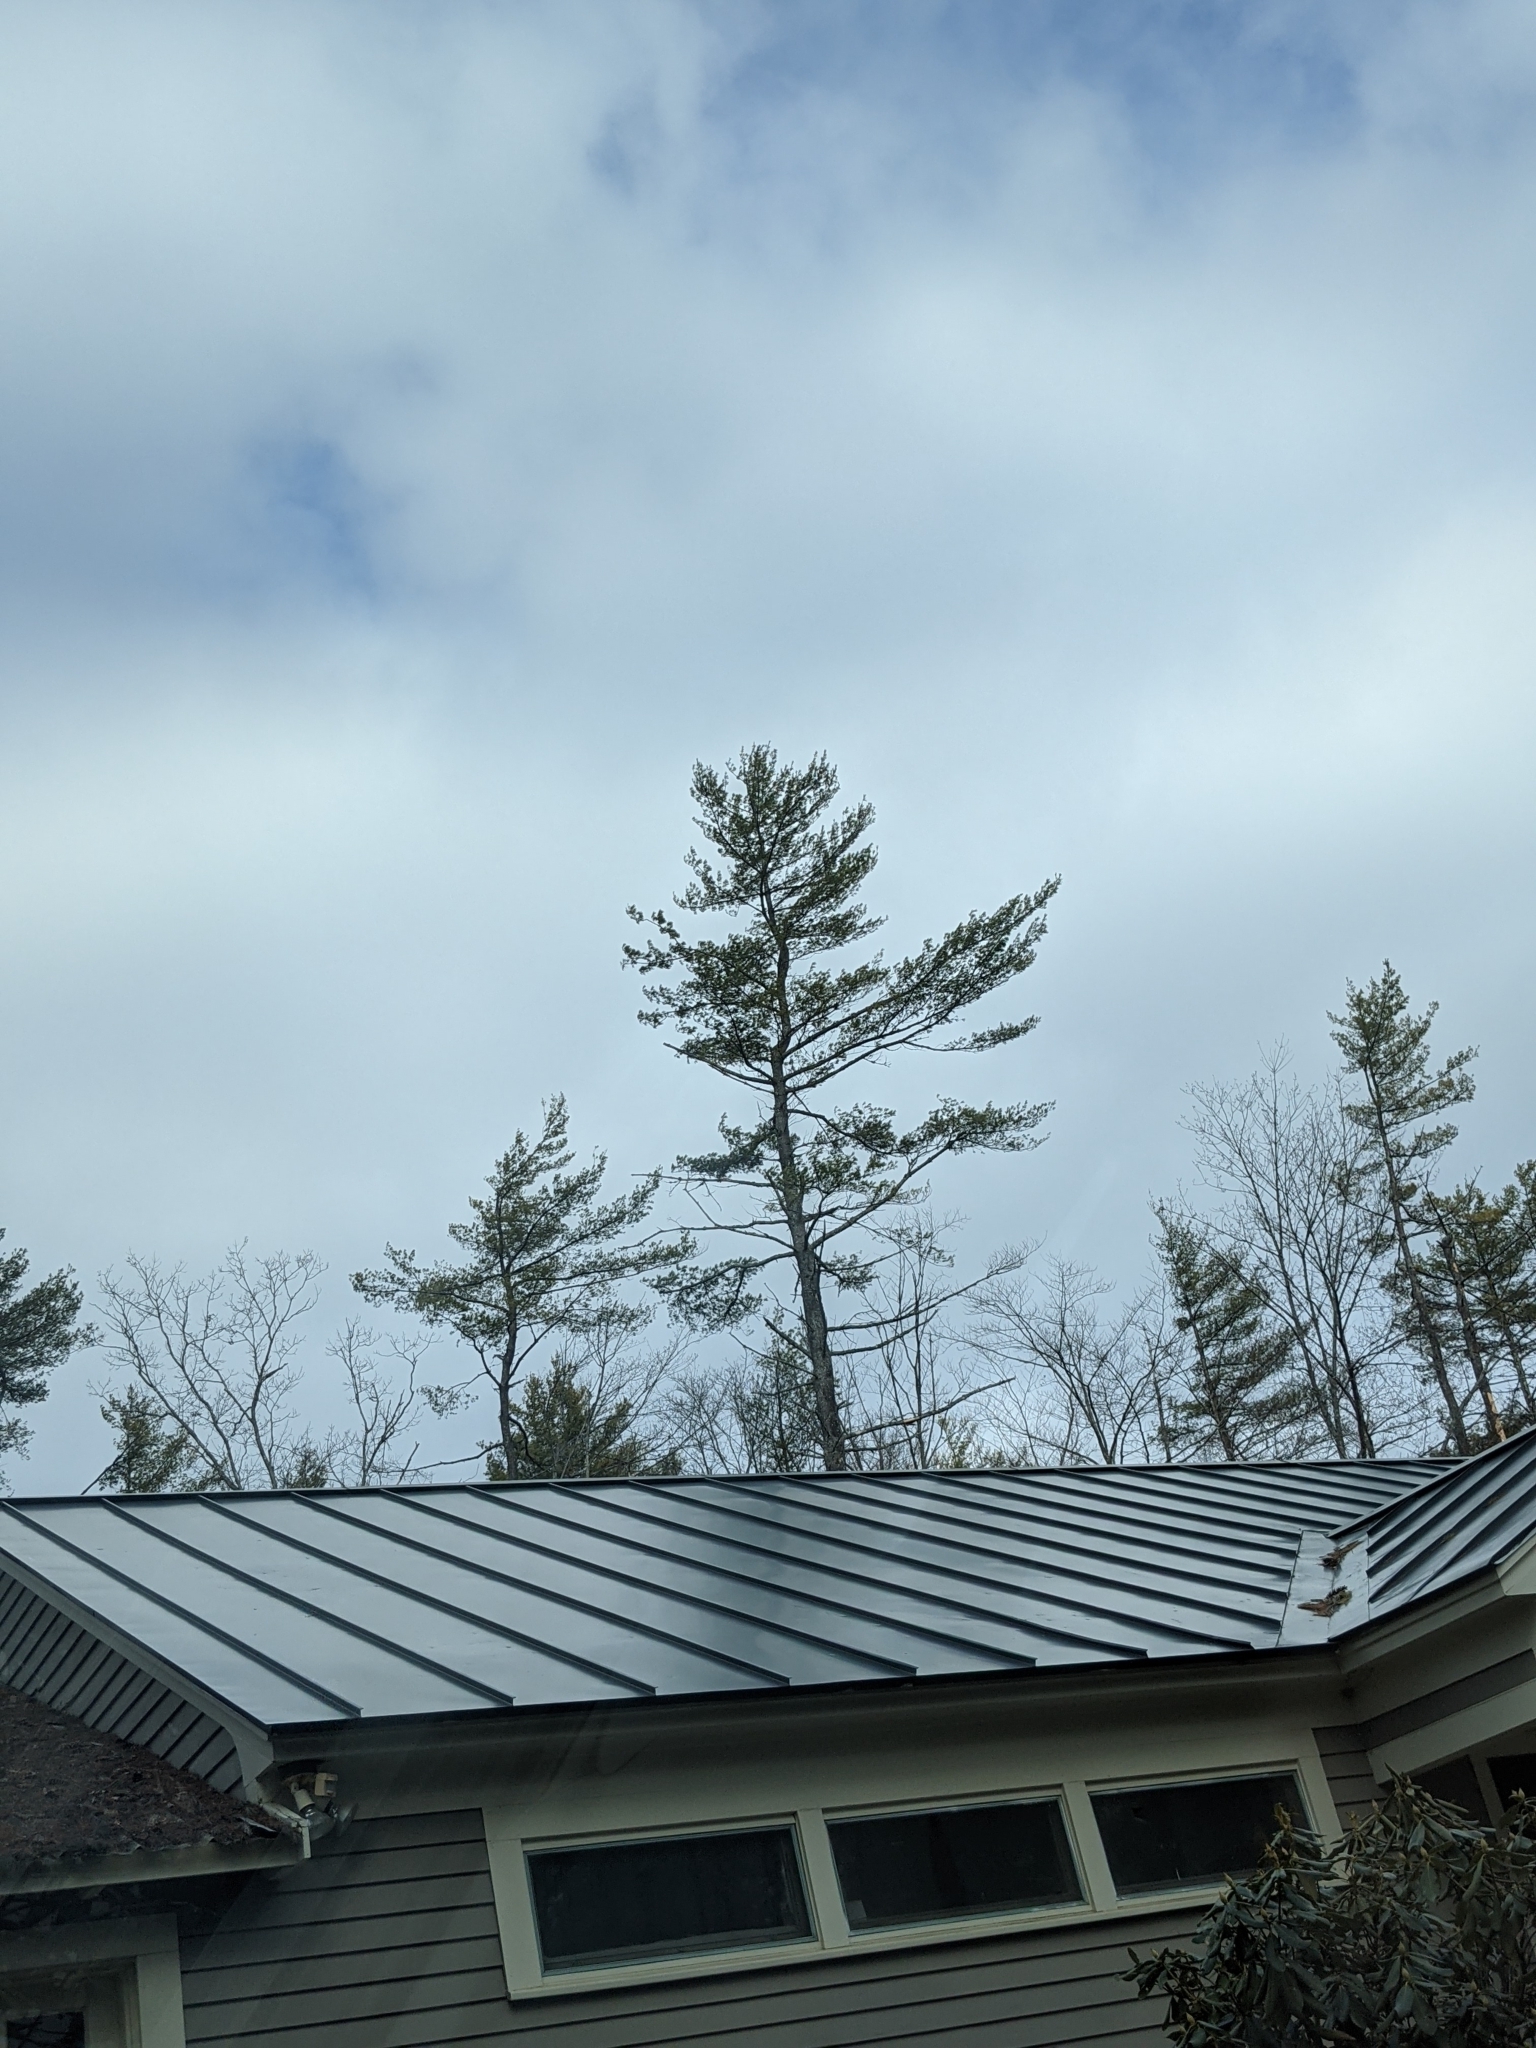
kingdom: Plantae
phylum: Tracheophyta
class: Pinopsida
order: Pinales
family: Pinaceae
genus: Pinus
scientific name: Pinus strobus
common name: Weymouth pine
